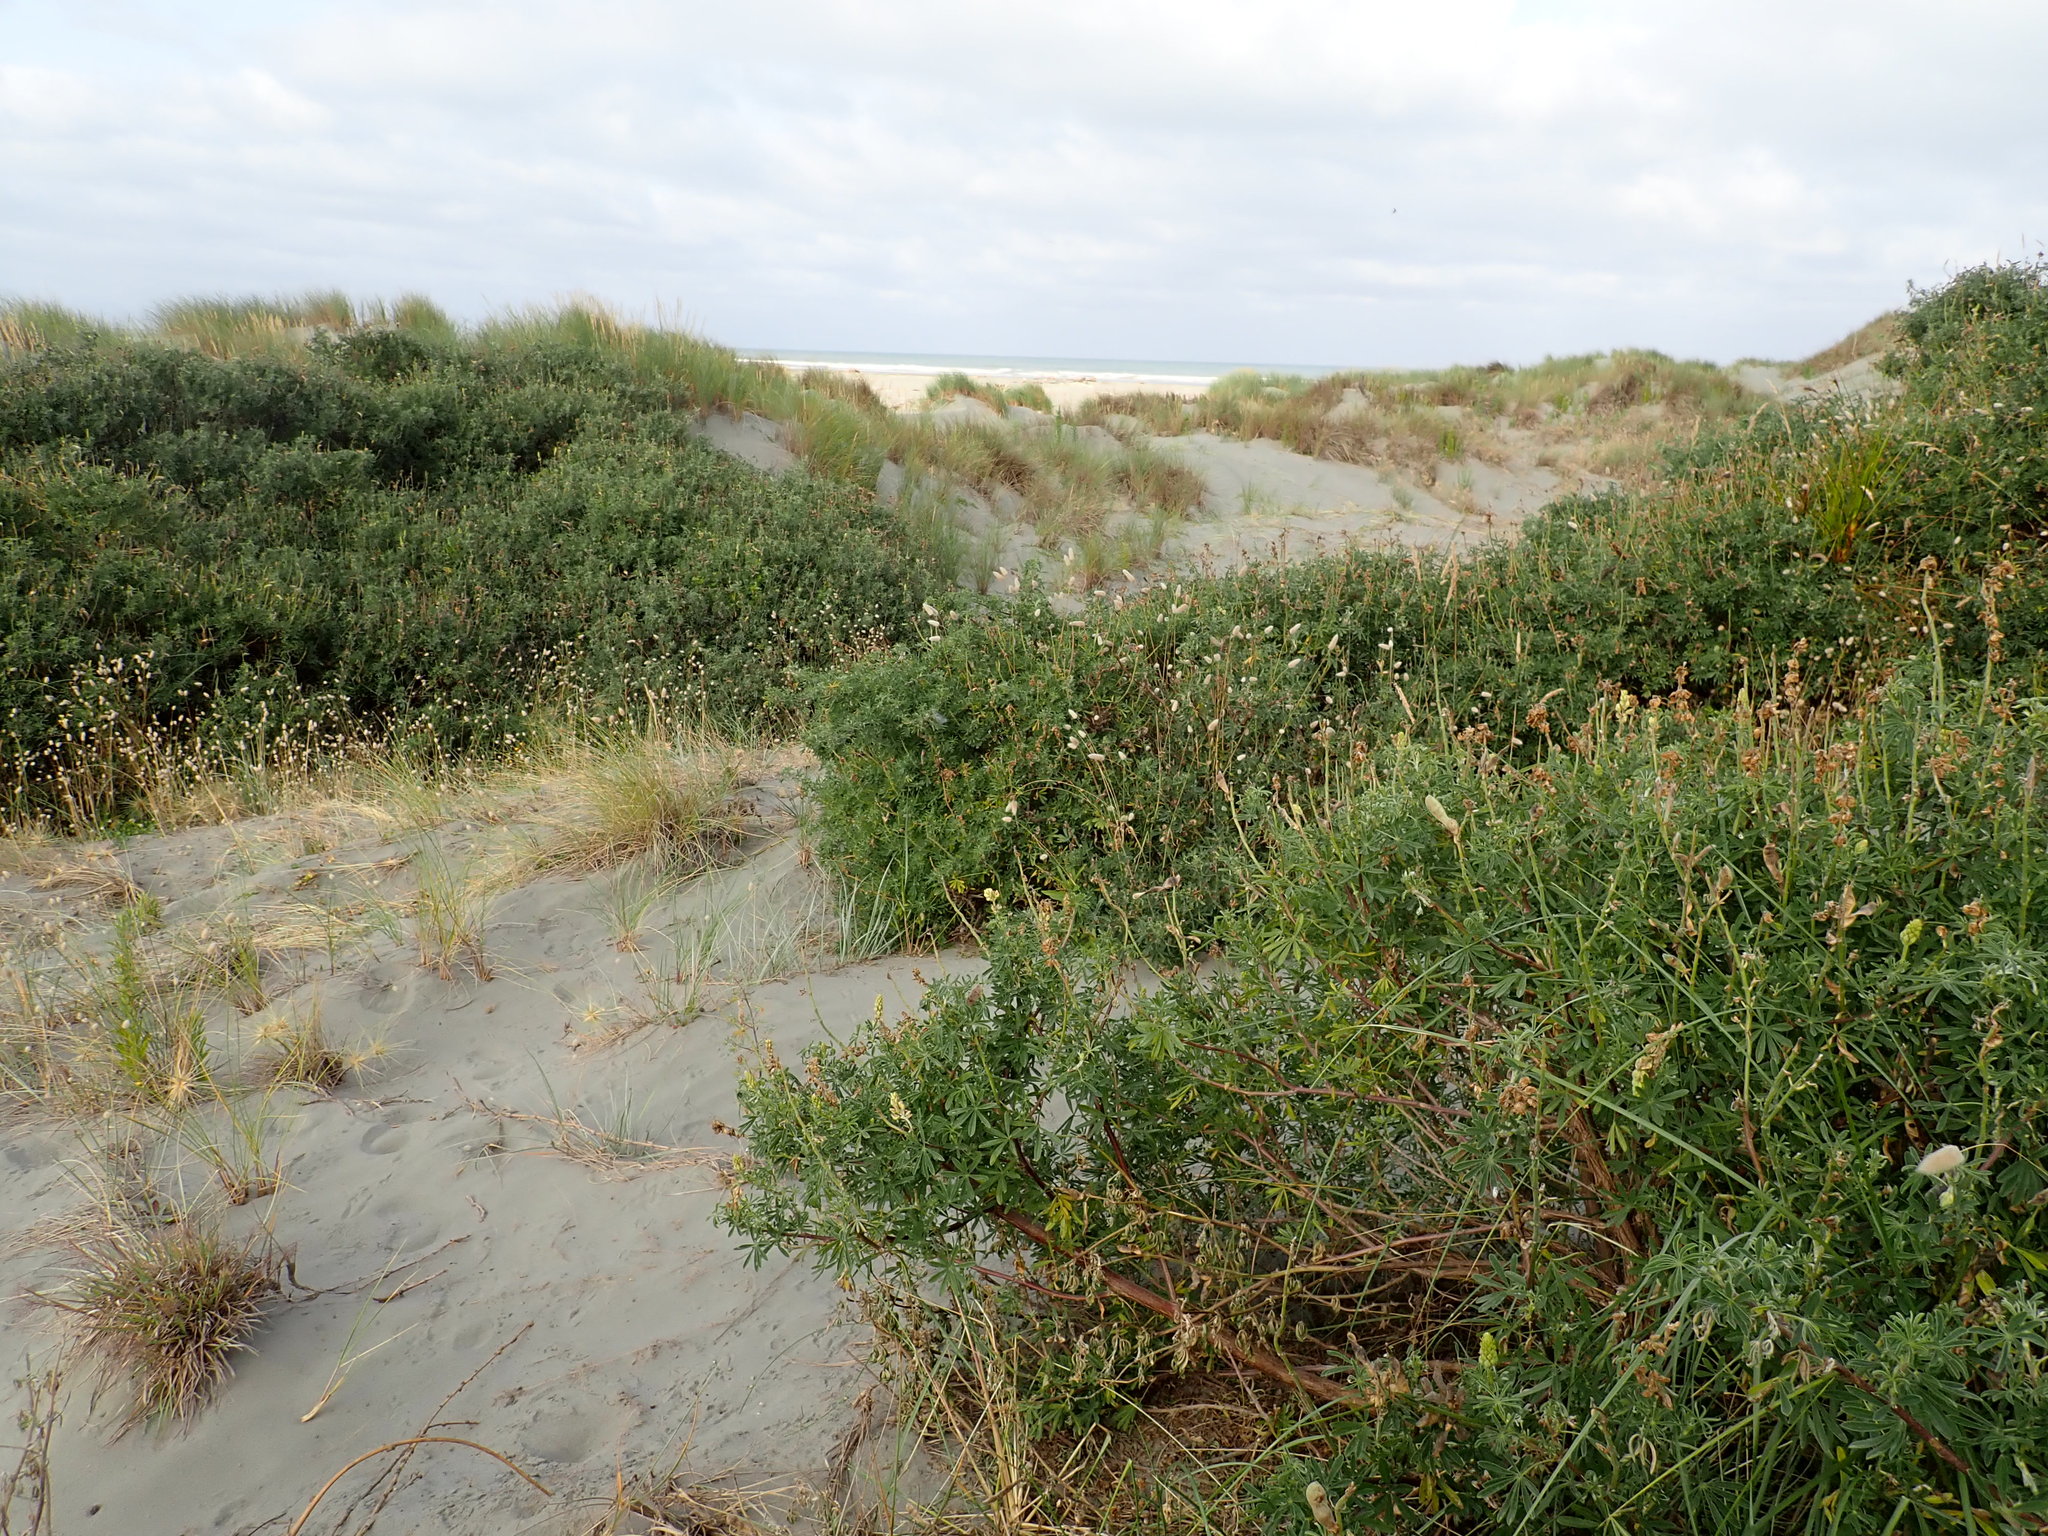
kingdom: Plantae
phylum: Tracheophyta
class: Magnoliopsida
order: Fabales
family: Fabaceae
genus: Lupinus
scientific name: Lupinus arboreus
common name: Yellow bush lupine
